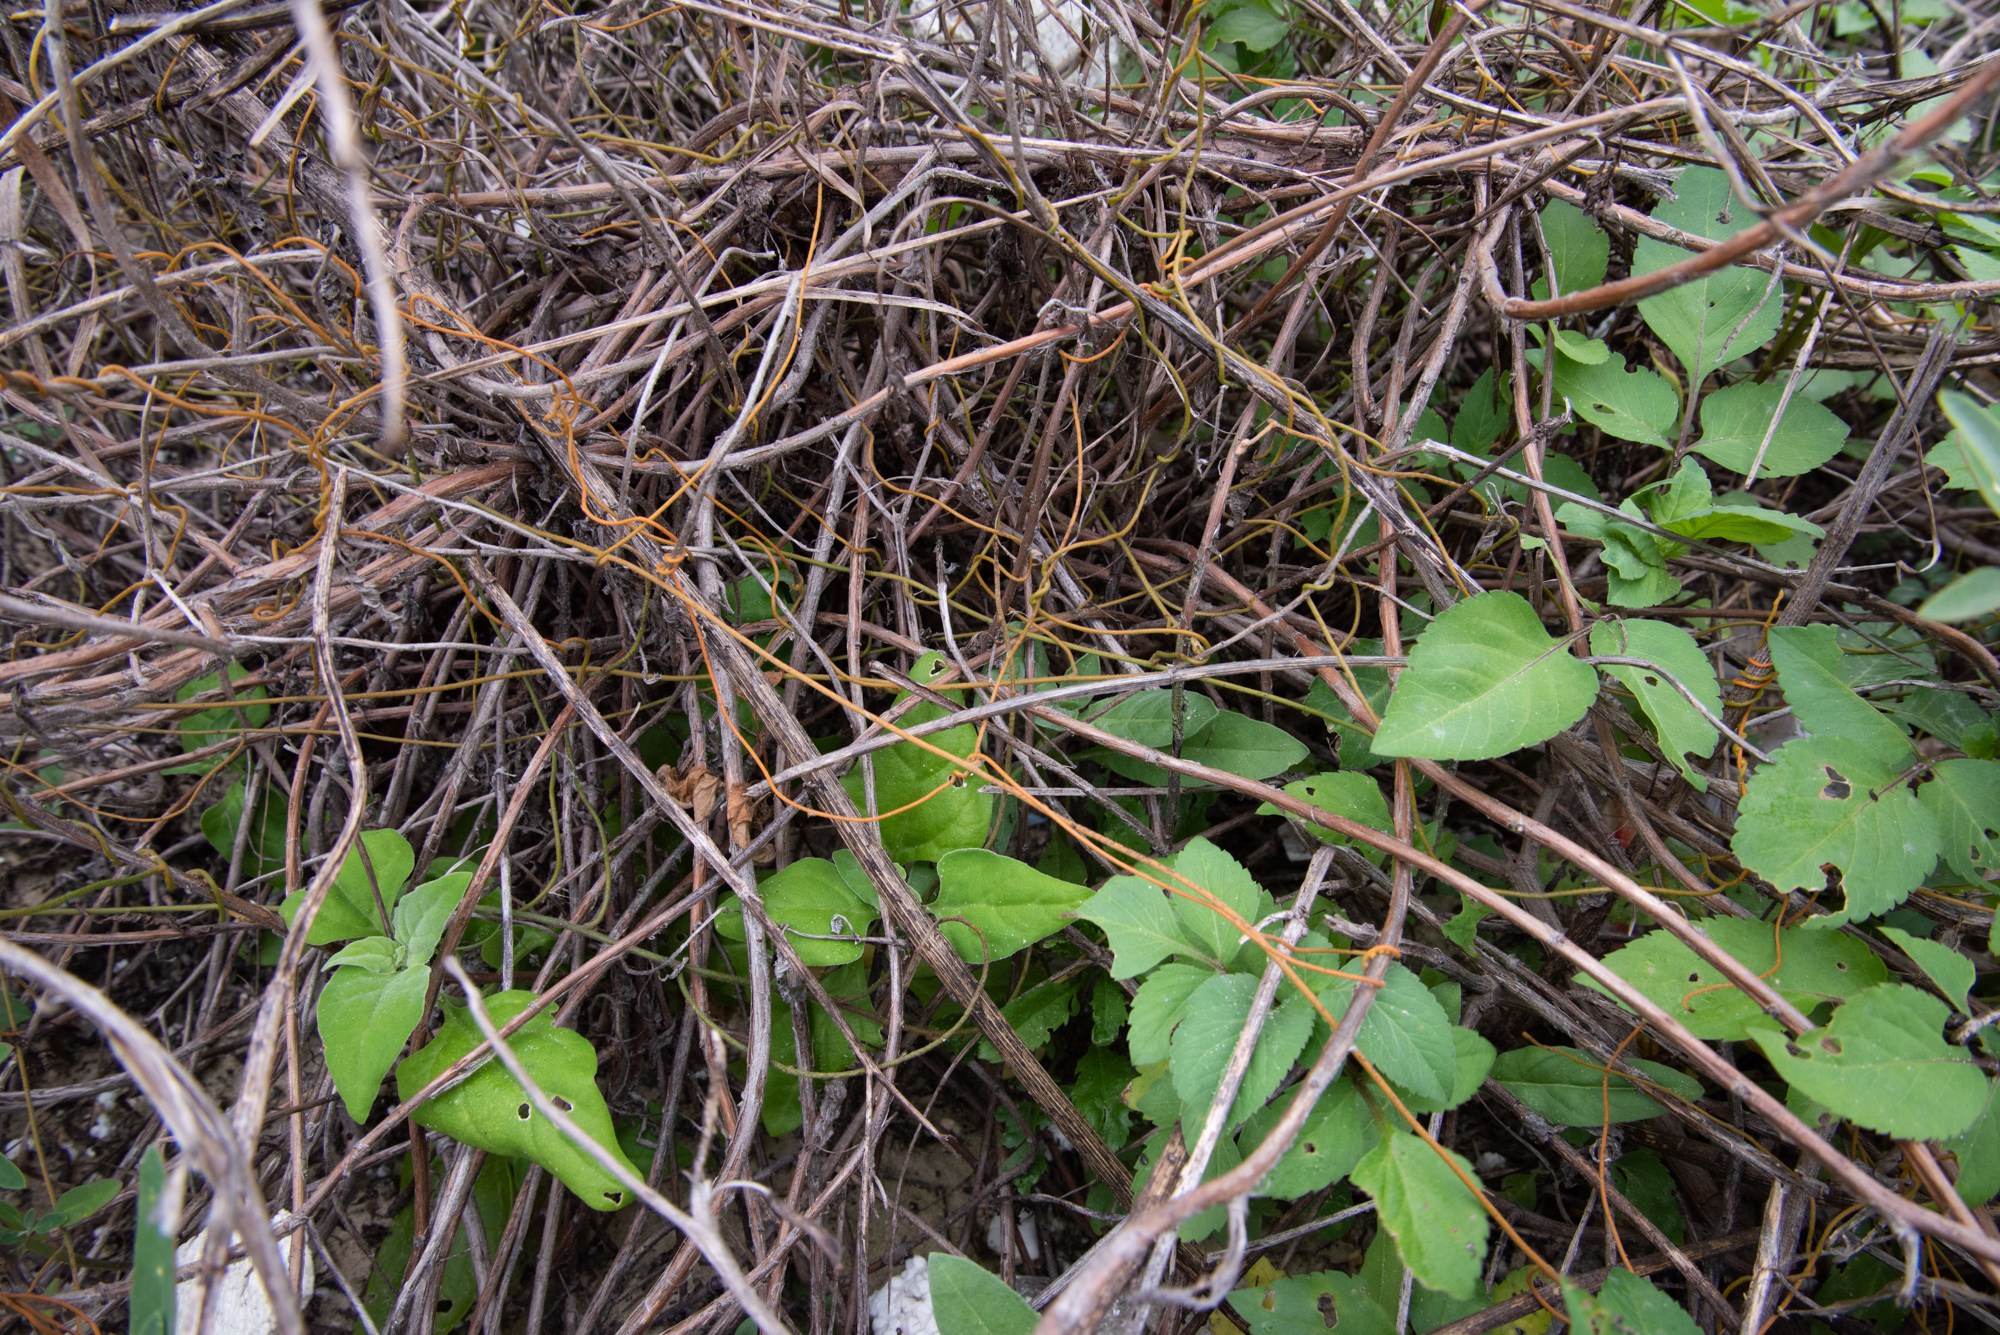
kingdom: Plantae
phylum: Tracheophyta
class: Magnoliopsida
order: Laurales
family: Lauraceae
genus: Cassytha
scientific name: Cassytha filiformis
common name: Dodder-laurel
